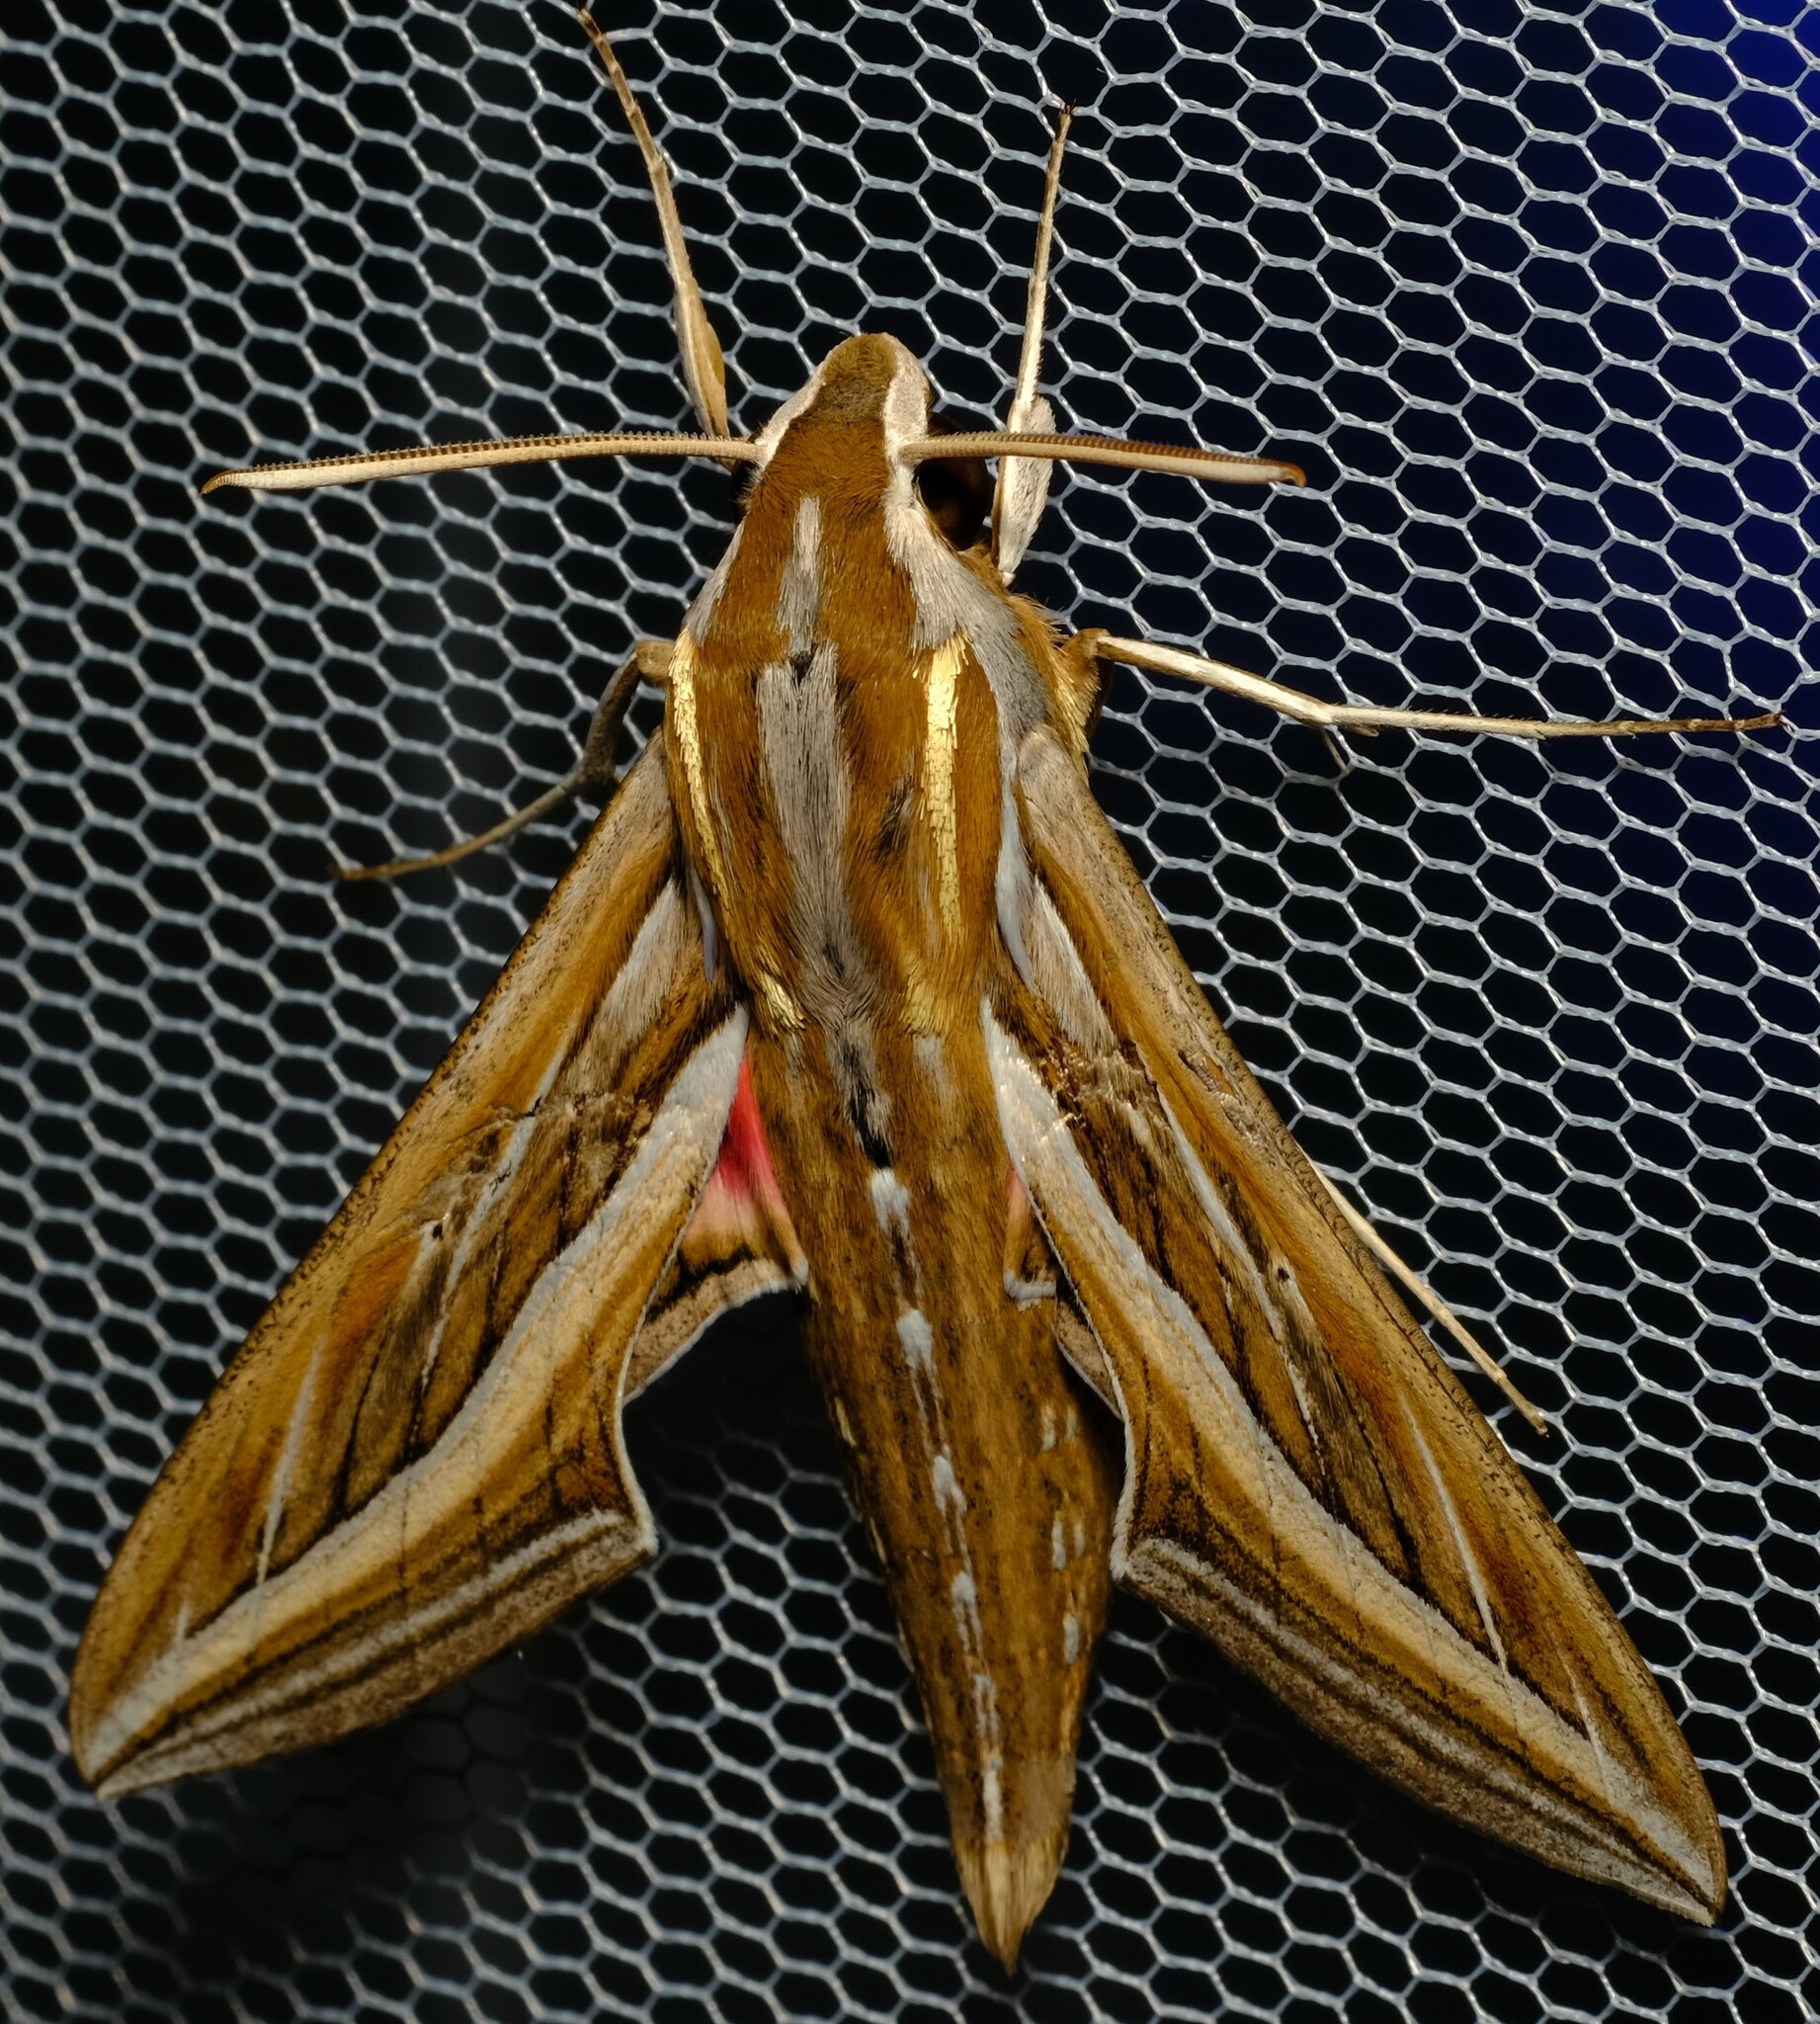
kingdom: Animalia
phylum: Arthropoda
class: Insecta
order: Lepidoptera
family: Sphingidae
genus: Hippotion
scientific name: Hippotion celerio
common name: Silver-striped hawk-moth
